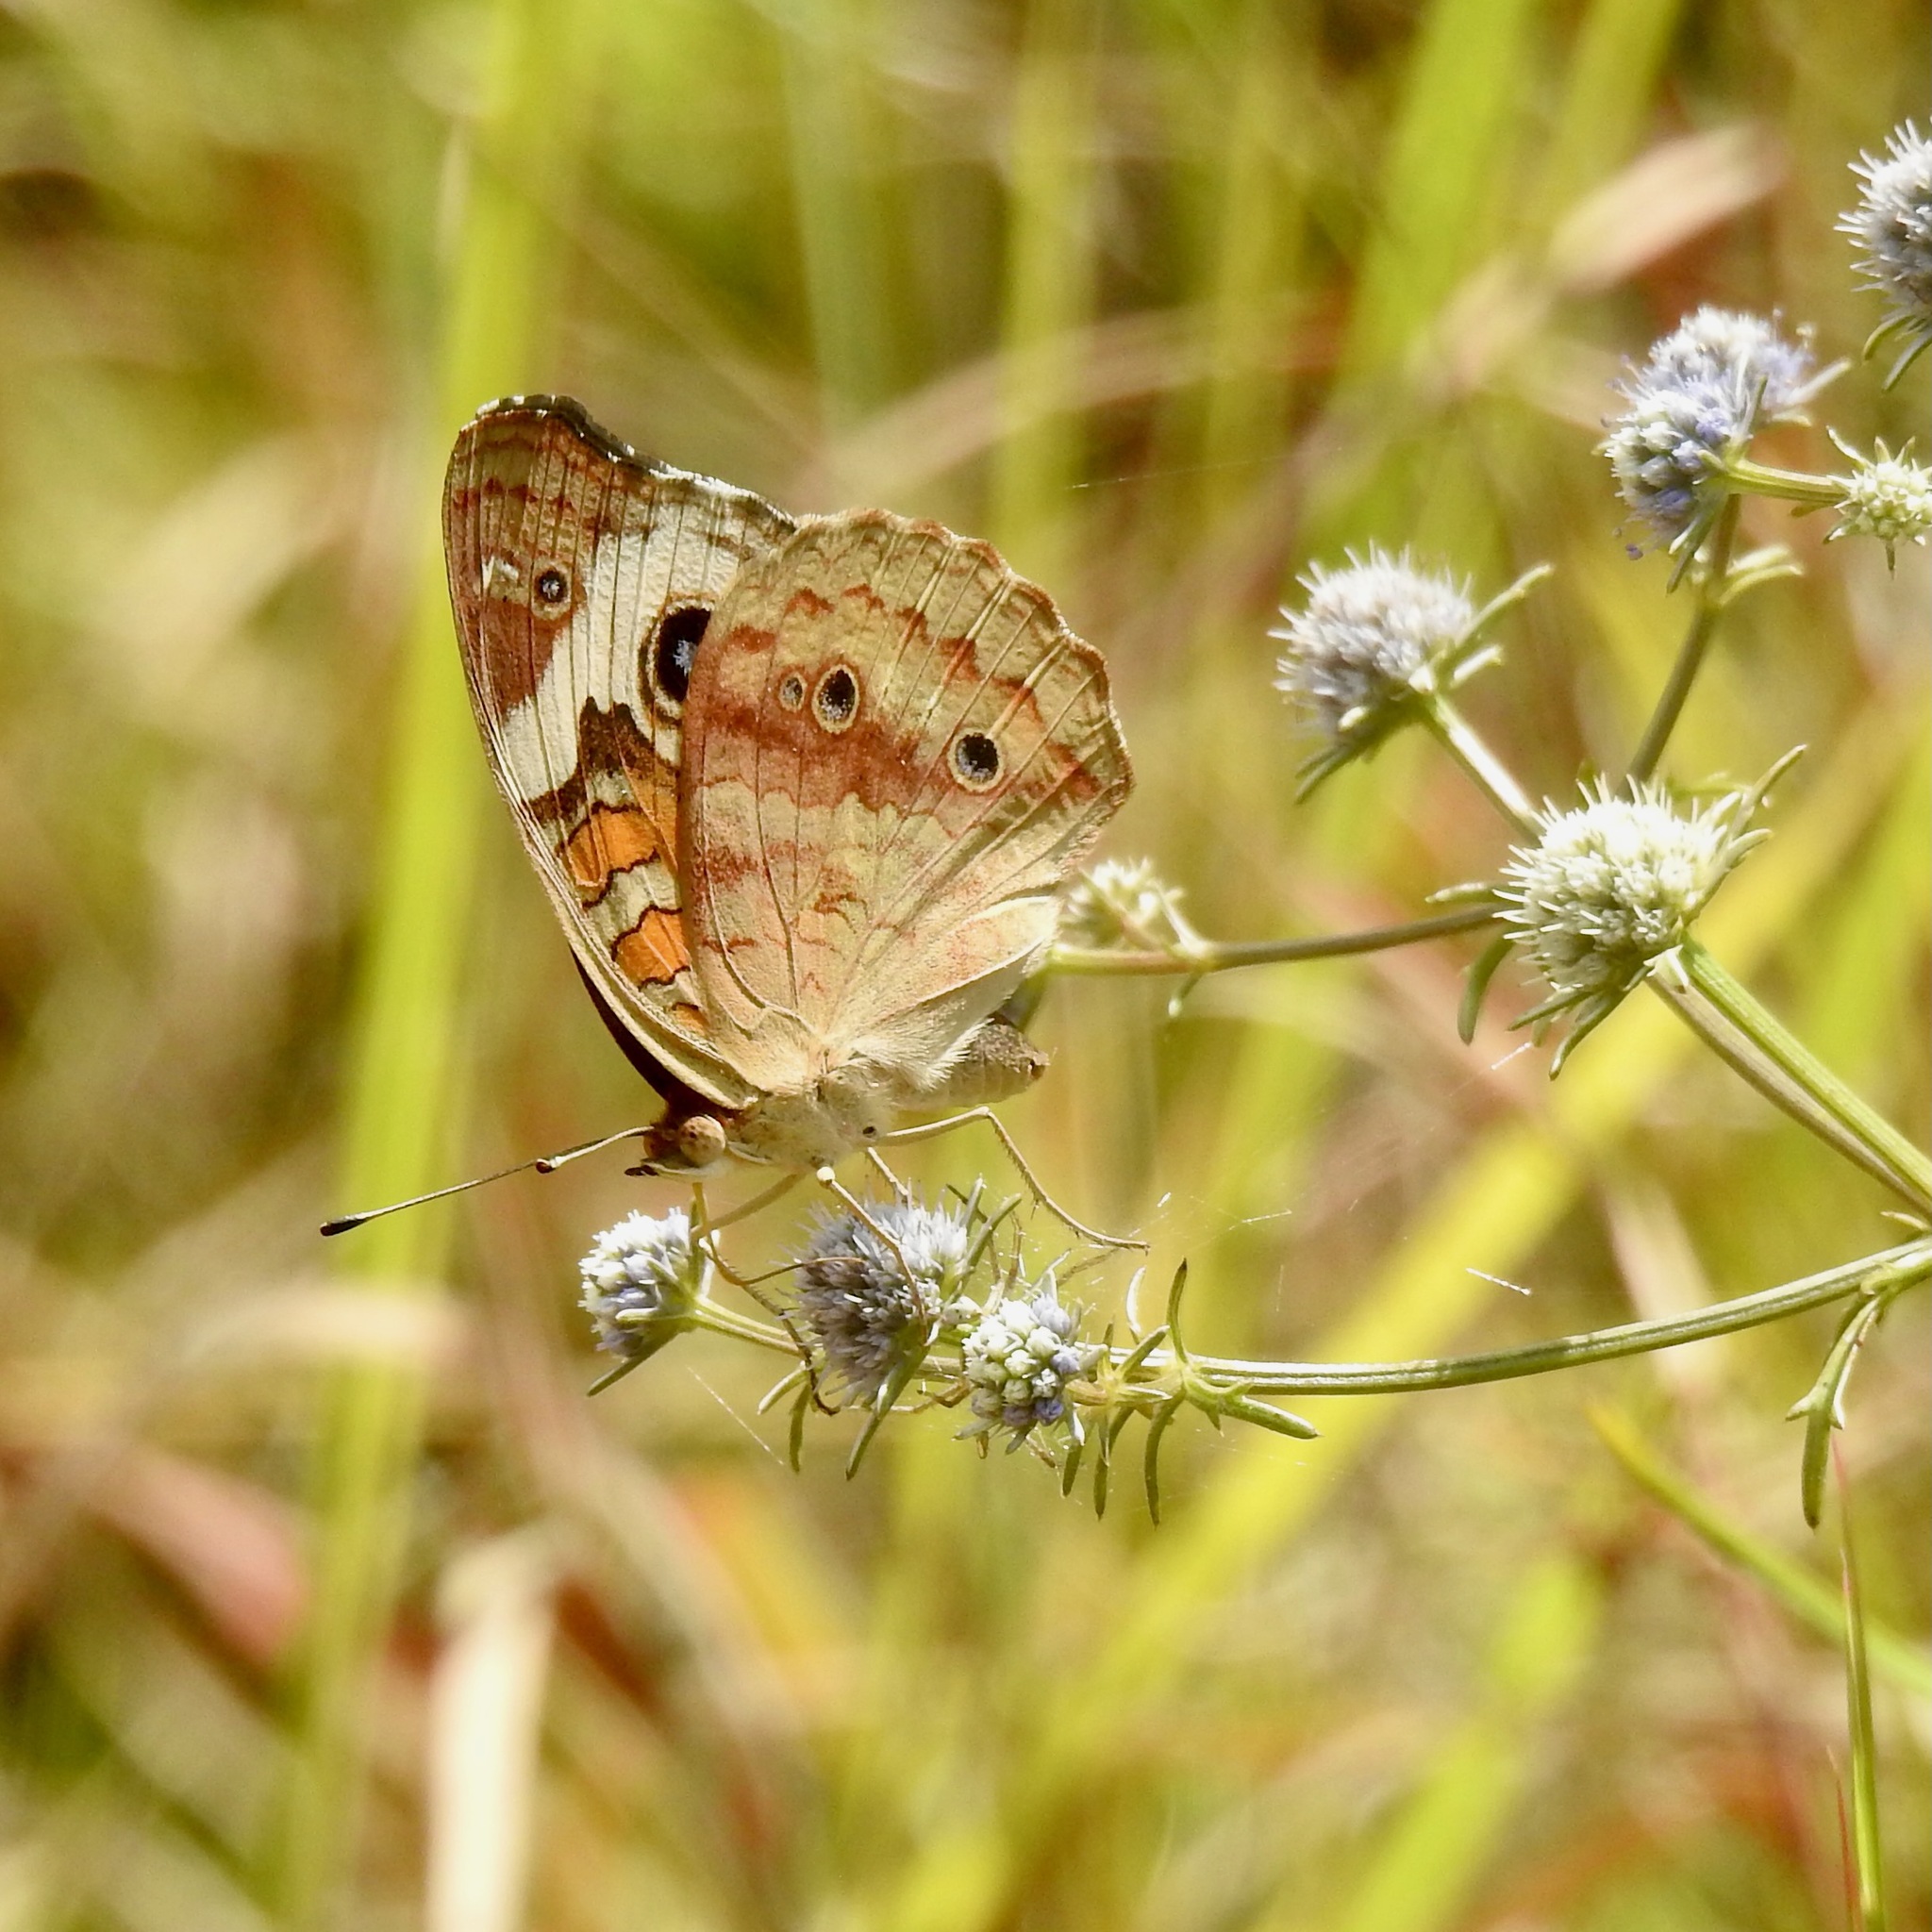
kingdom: Animalia
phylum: Arthropoda
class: Insecta
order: Lepidoptera
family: Nymphalidae
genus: Junonia
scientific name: Junonia coenia
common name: Common buckeye
